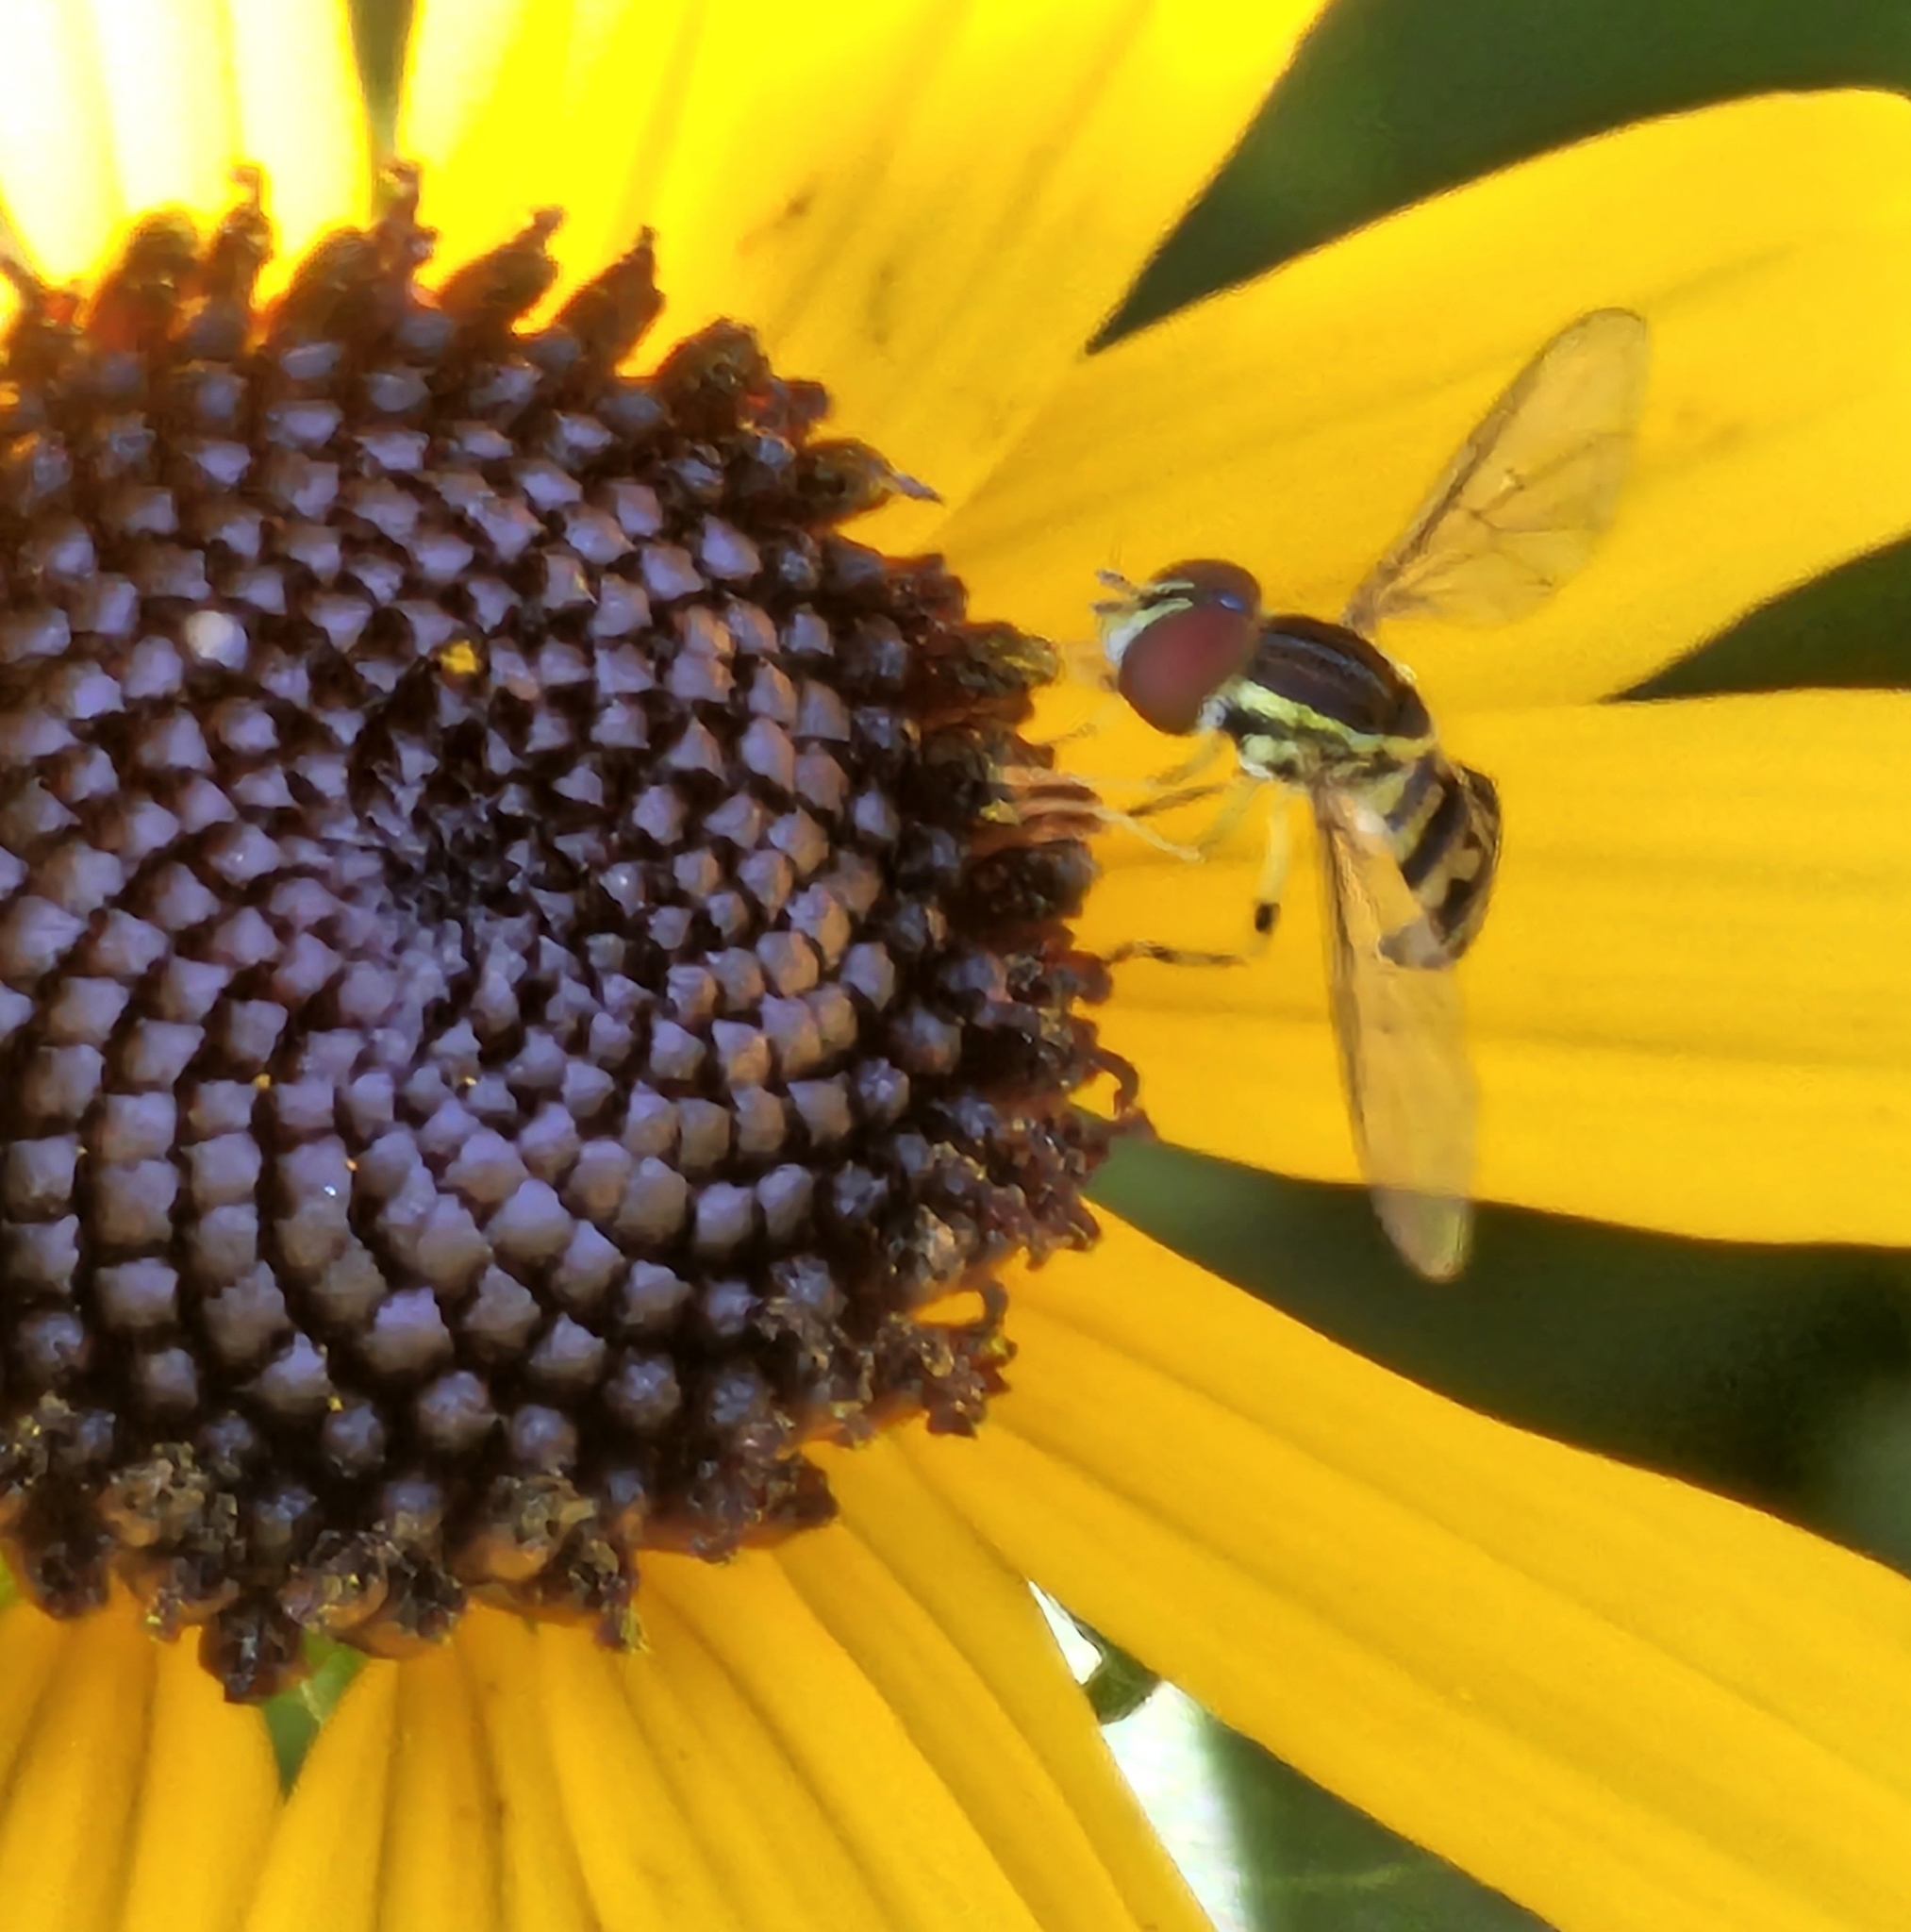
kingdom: Animalia
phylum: Arthropoda
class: Insecta
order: Diptera
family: Syrphidae
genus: Toxomerus
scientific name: Toxomerus geminatus
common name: Eastern calligrapher
